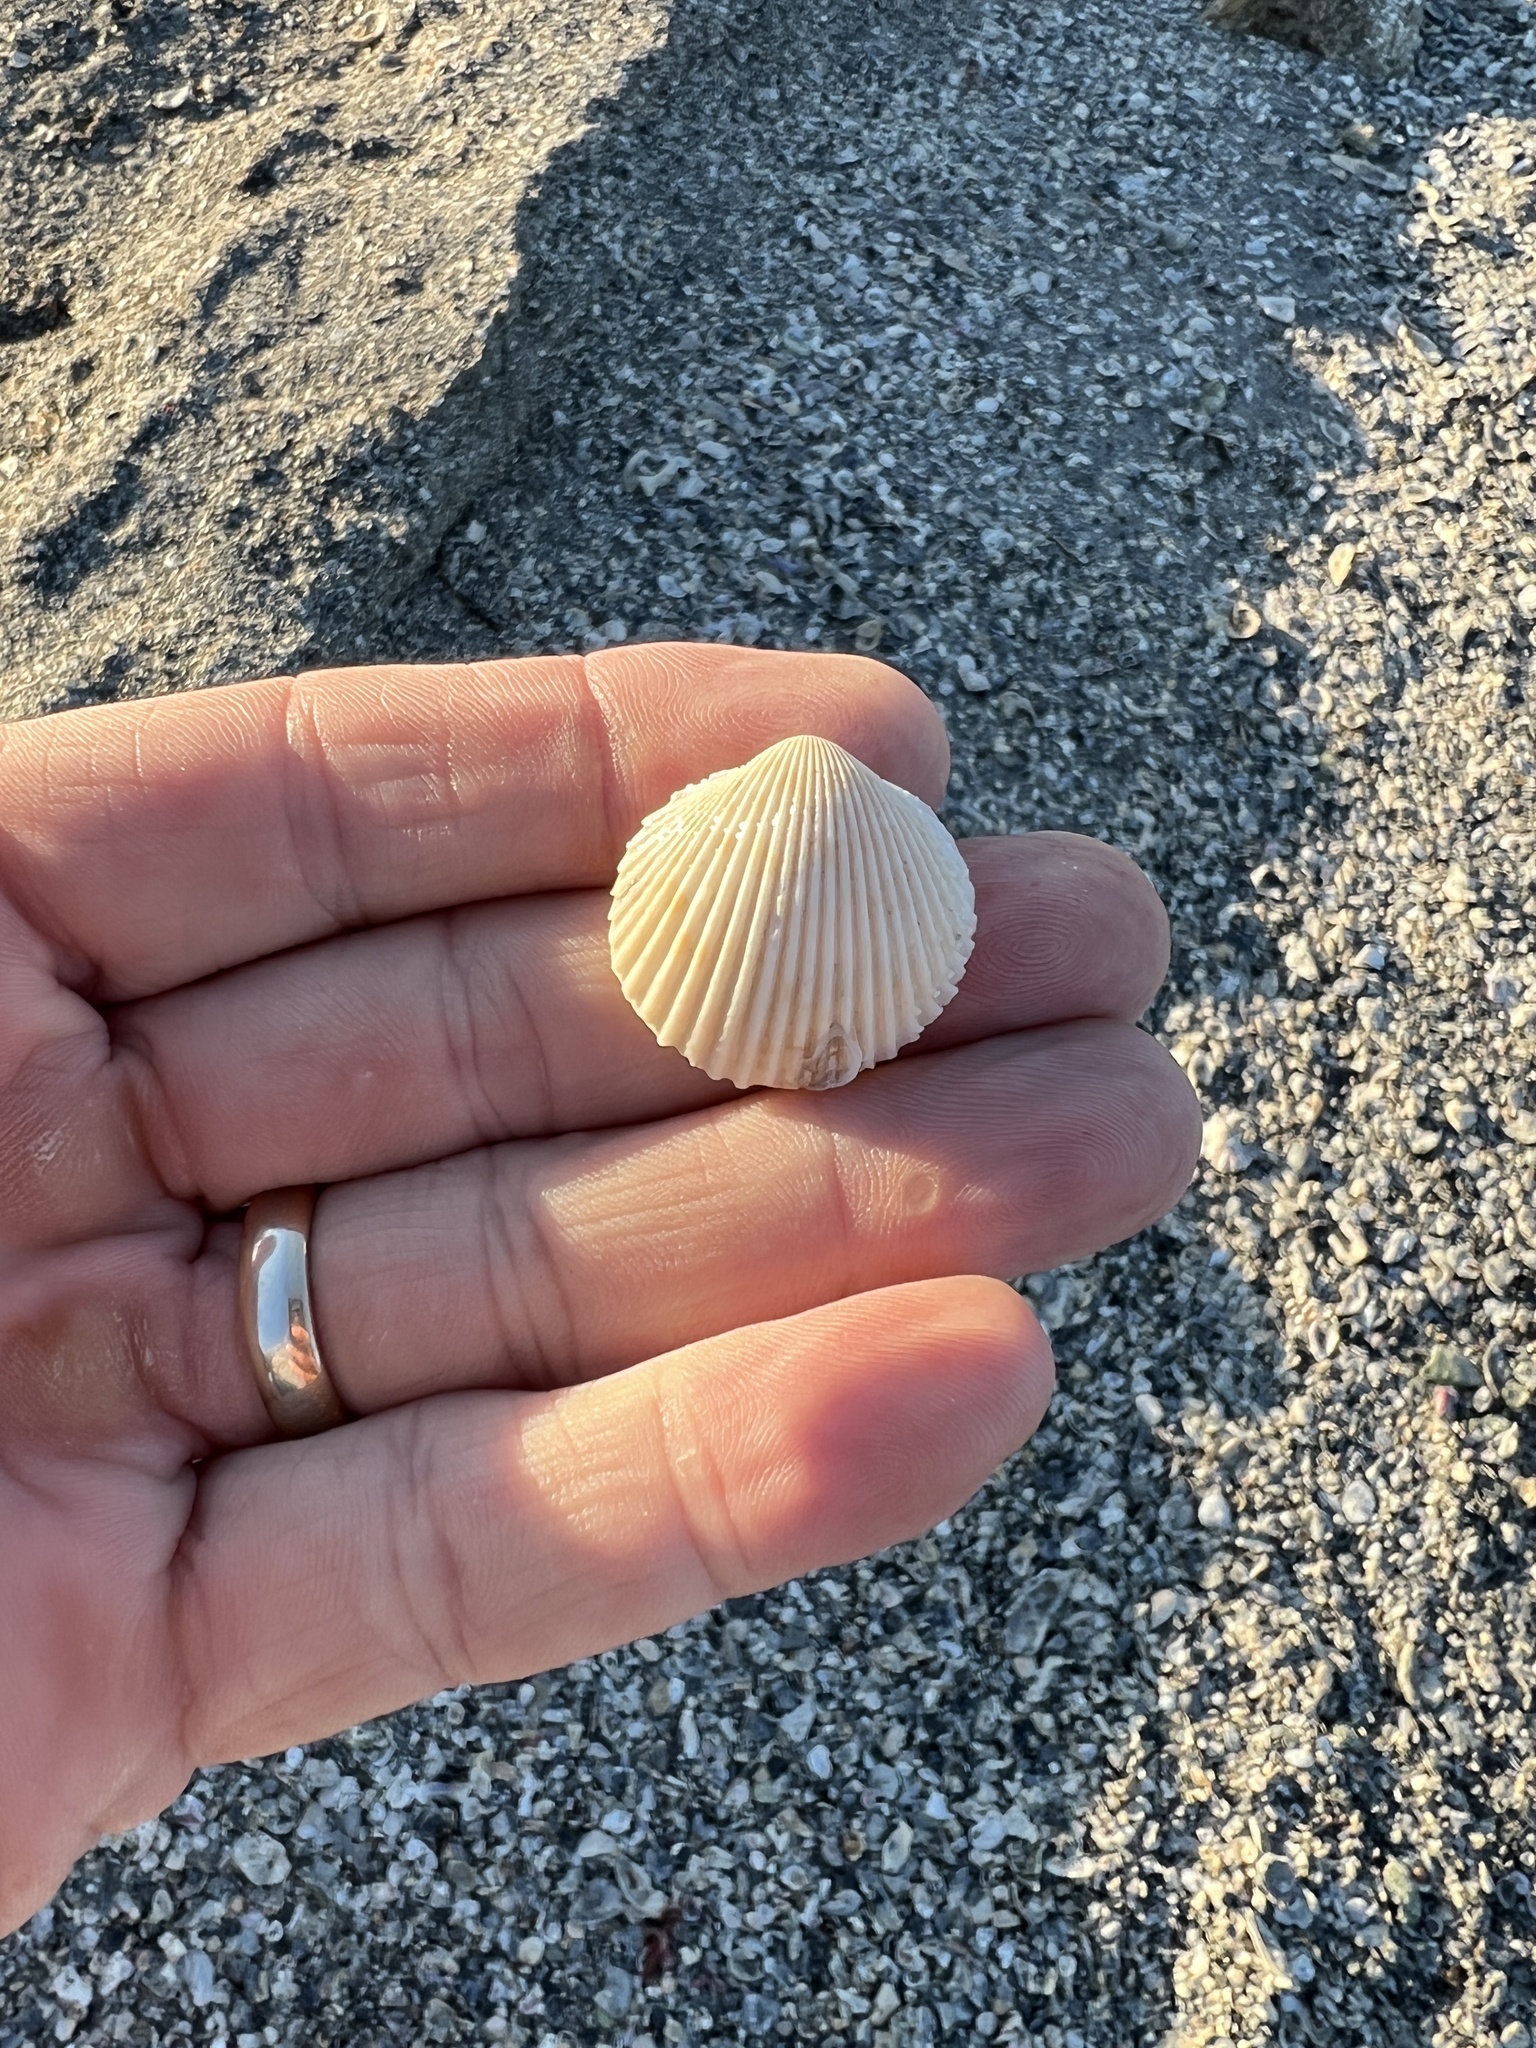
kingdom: Animalia
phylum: Mollusca
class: Bivalvia
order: Cardiida
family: Cardiidae
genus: Dallocardia
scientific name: Dallocardia muricata
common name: Yellow pricklycockle
